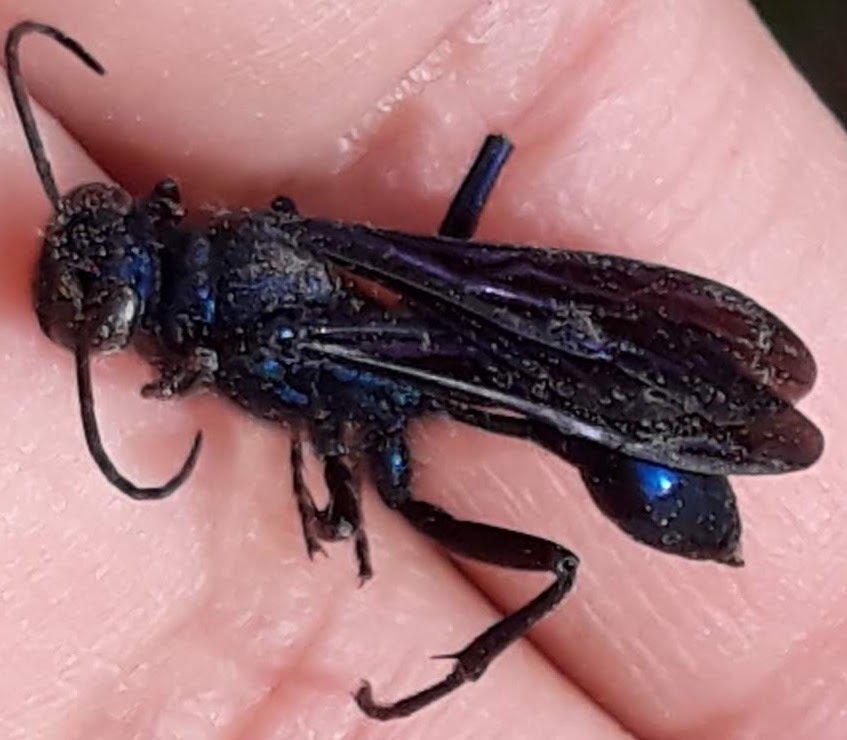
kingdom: Animalia
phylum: Arthropoda
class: Insecta
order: Hymenoptera
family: Sphecidae
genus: Chalybion
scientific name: Chalybion californicum
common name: Mud dauber
